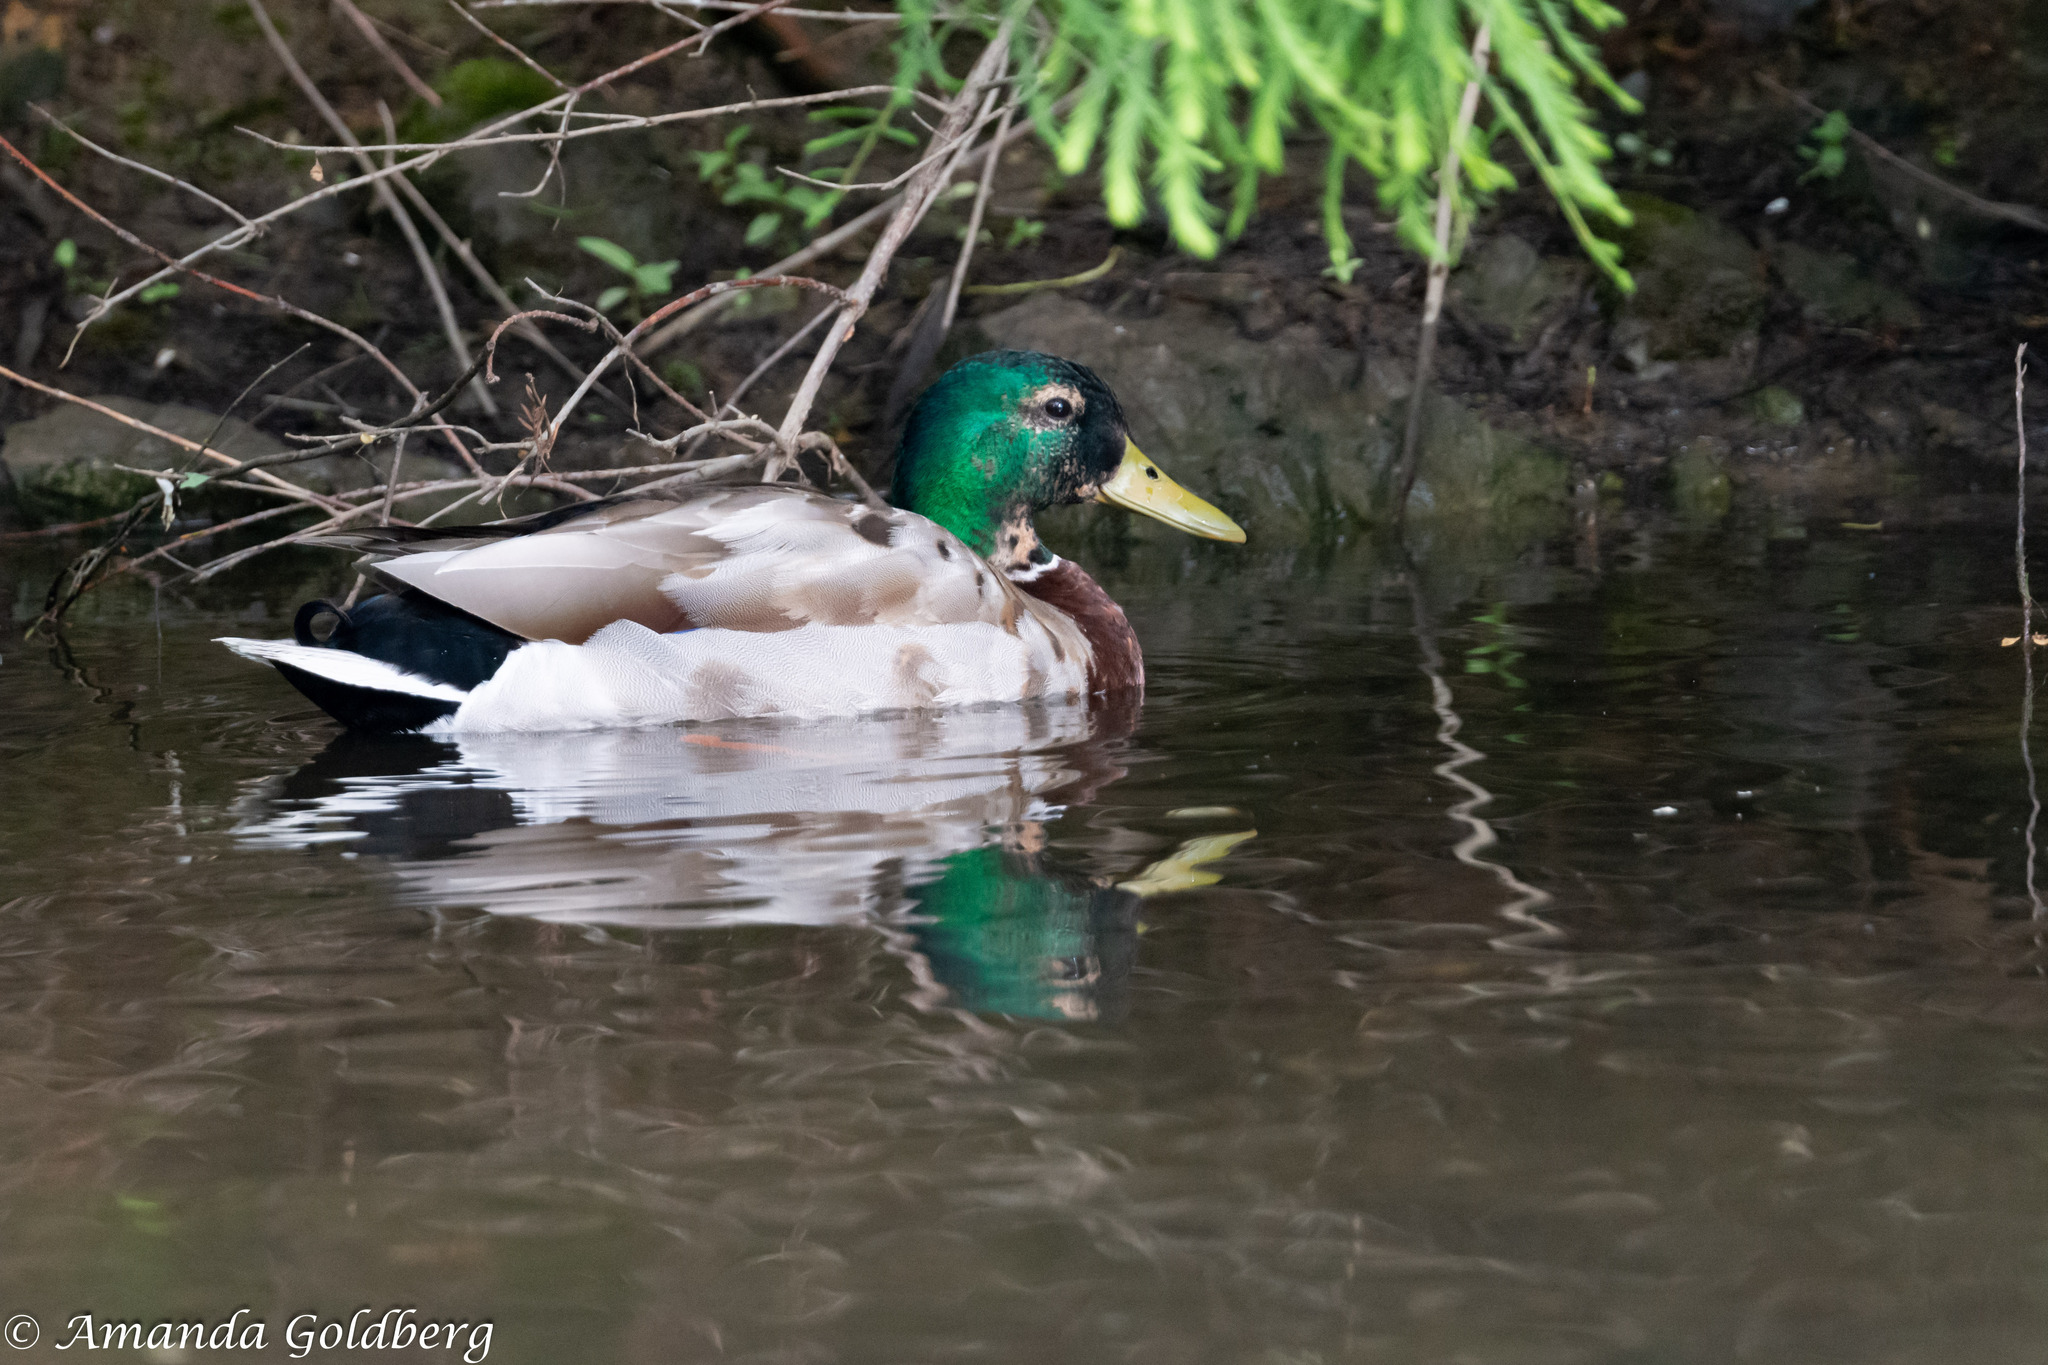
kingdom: Animalia
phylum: Chordata
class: Aves
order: Anseriformes
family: Anatidae
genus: Anas
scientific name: Anas platyrhynchos
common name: Mallard
